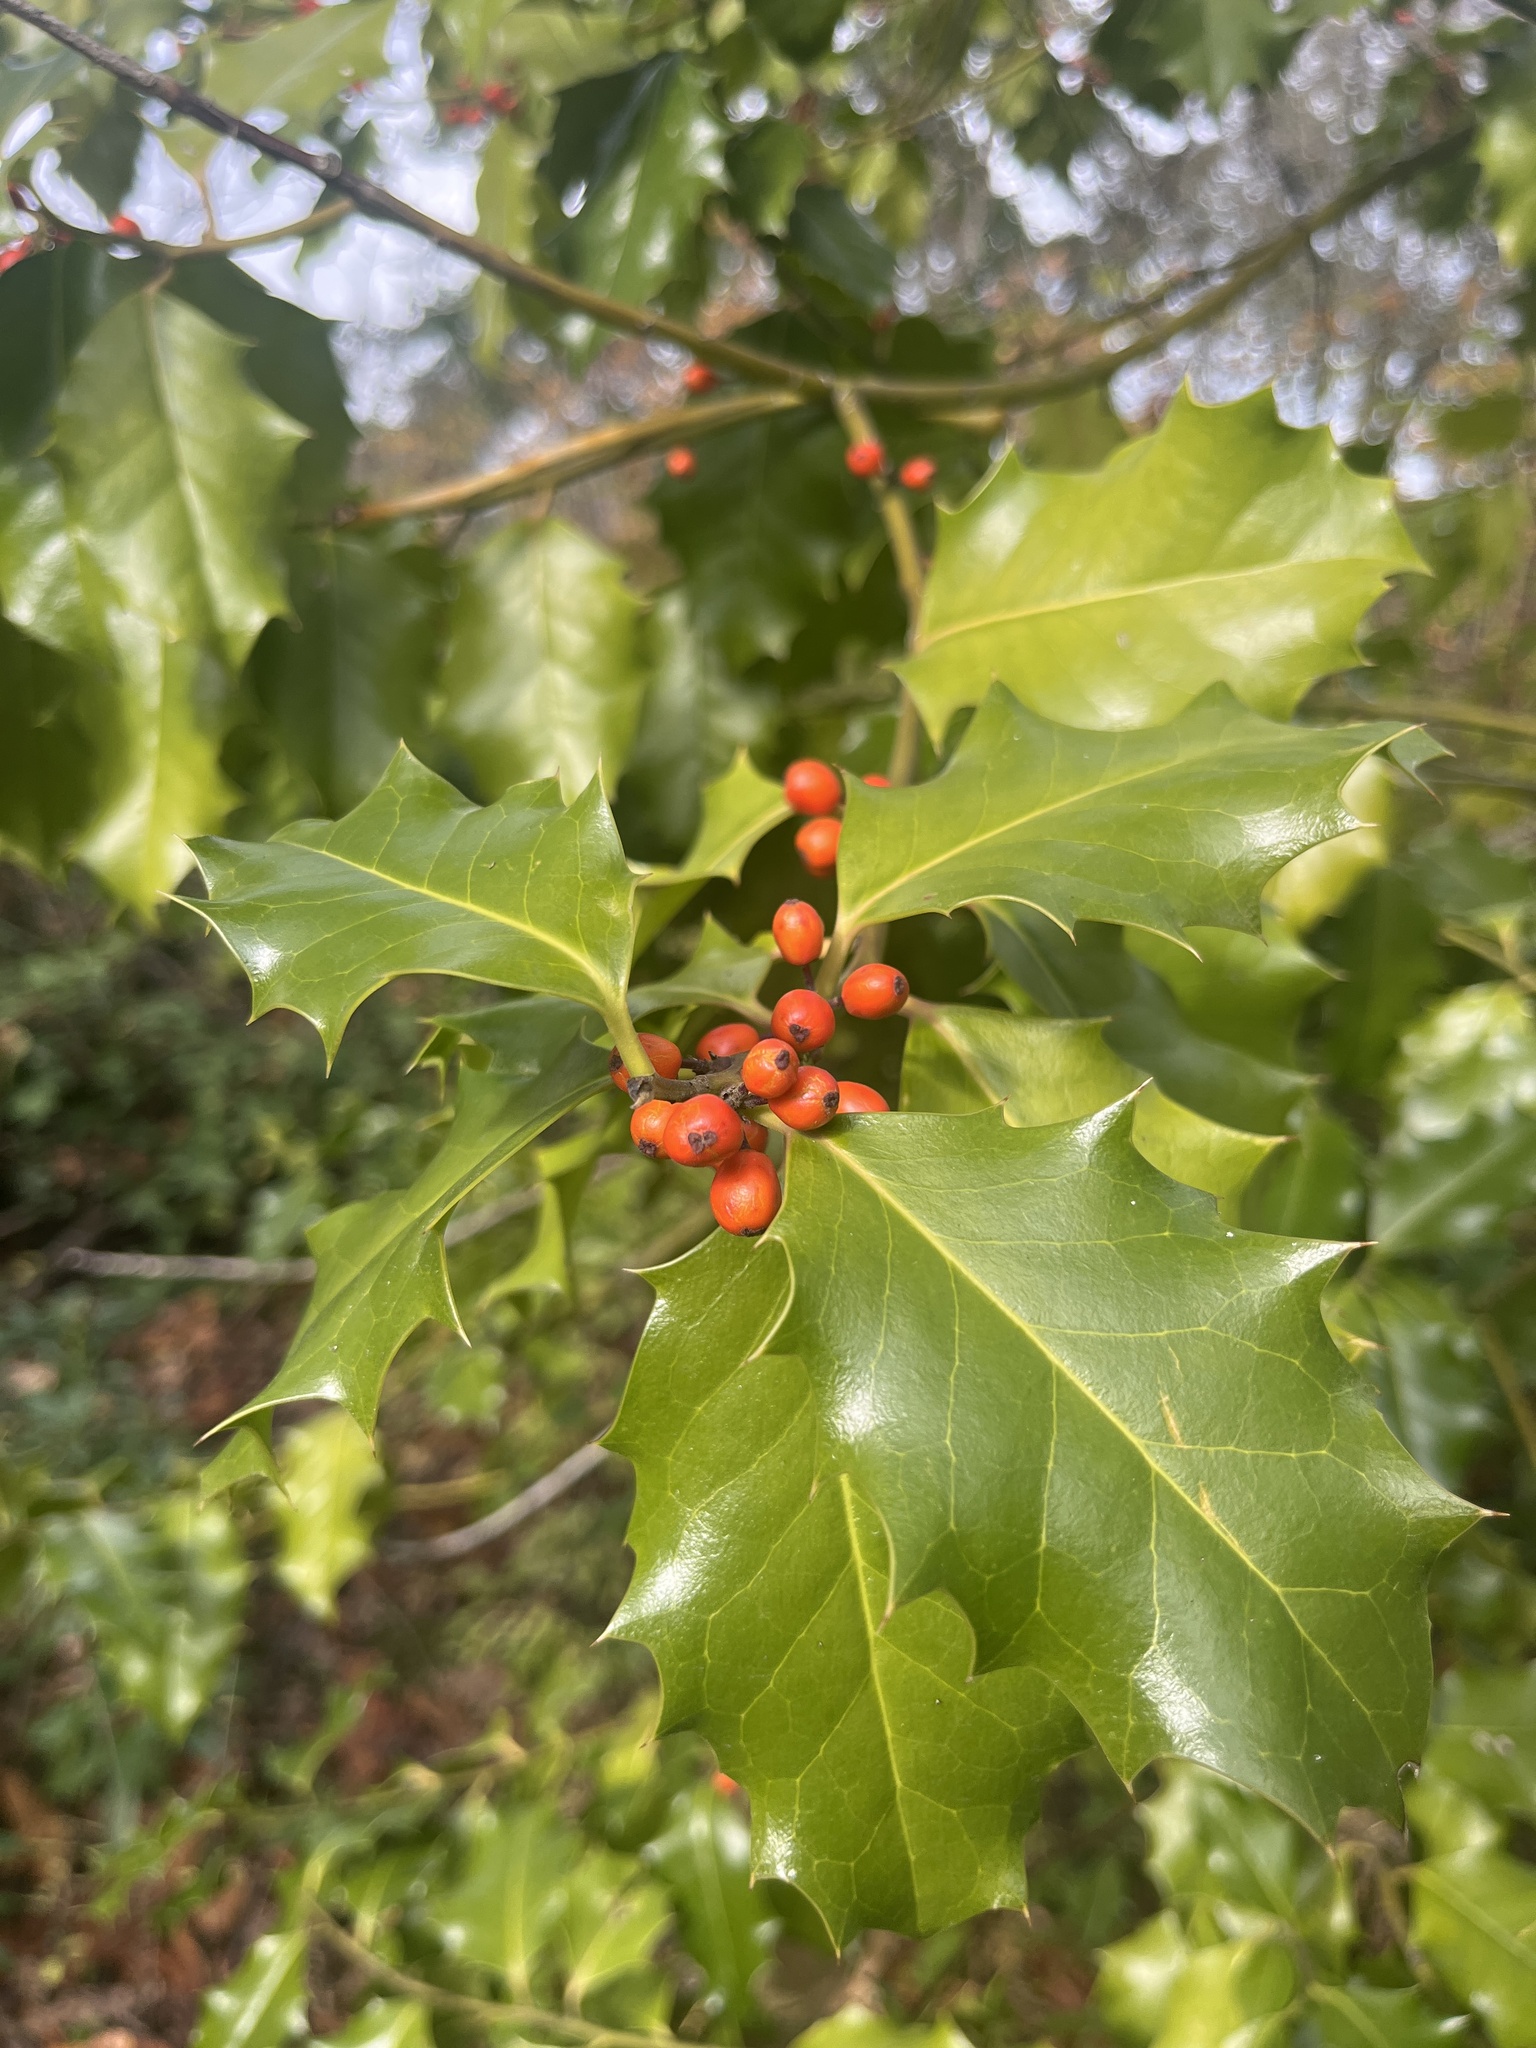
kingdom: Plantae
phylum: Tracheophyta
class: Magnoliopsida
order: Aquifoliales
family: Aquifoliaceae
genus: Ilex
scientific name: Ilex aquifolium
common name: English holly
